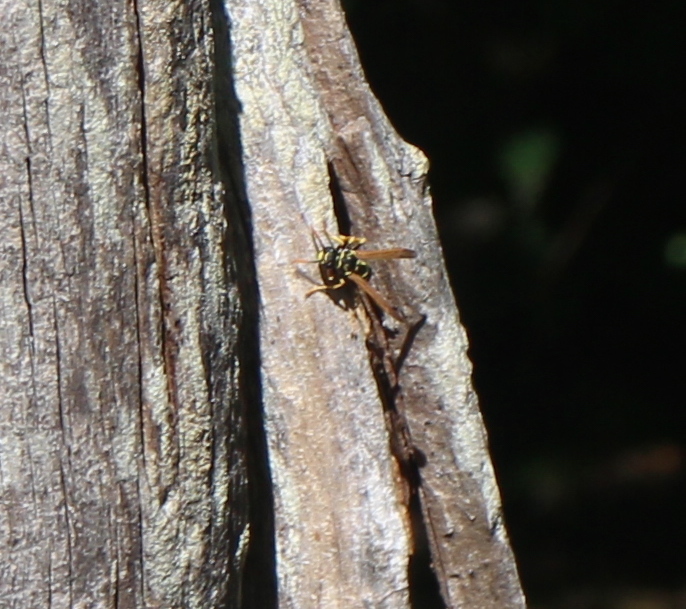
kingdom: Animalia
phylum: Arthropoda
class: Insecta
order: Hymenoptera
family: Eumenidae
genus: Polistes
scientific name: Polistes dominula
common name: Paper wasp
